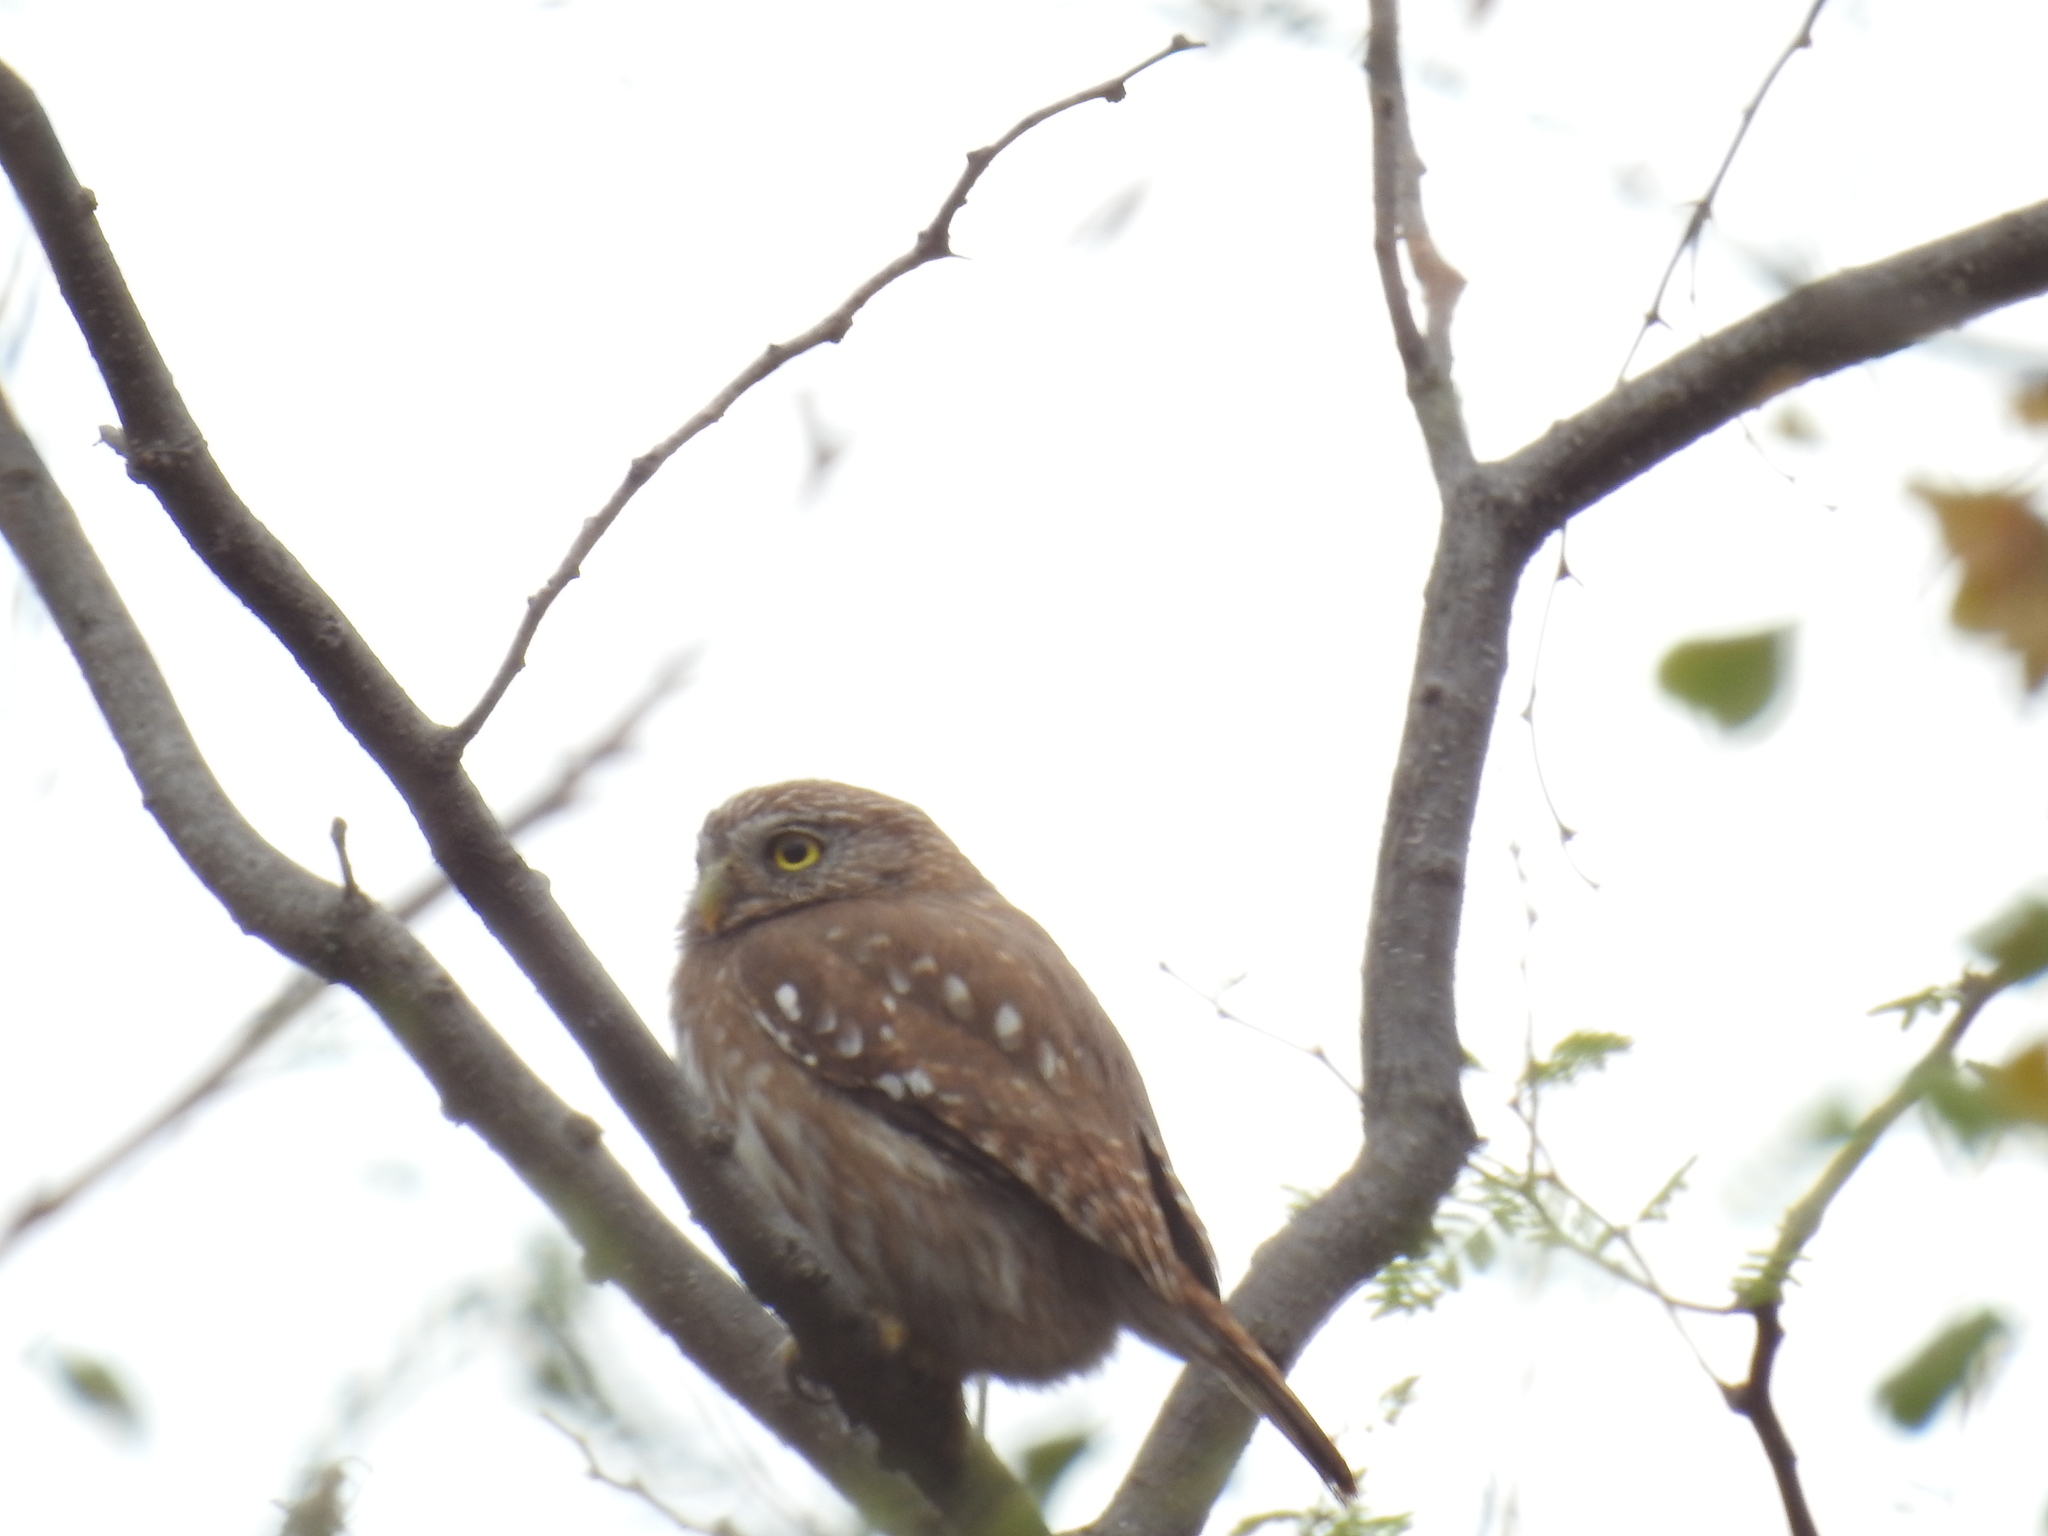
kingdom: Animalia
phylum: Chordata
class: Aves
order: Strigiformes
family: Strigidae
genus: Glaucidium
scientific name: Glaucidium brasilianum
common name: Ferruginous pygmy-owl
